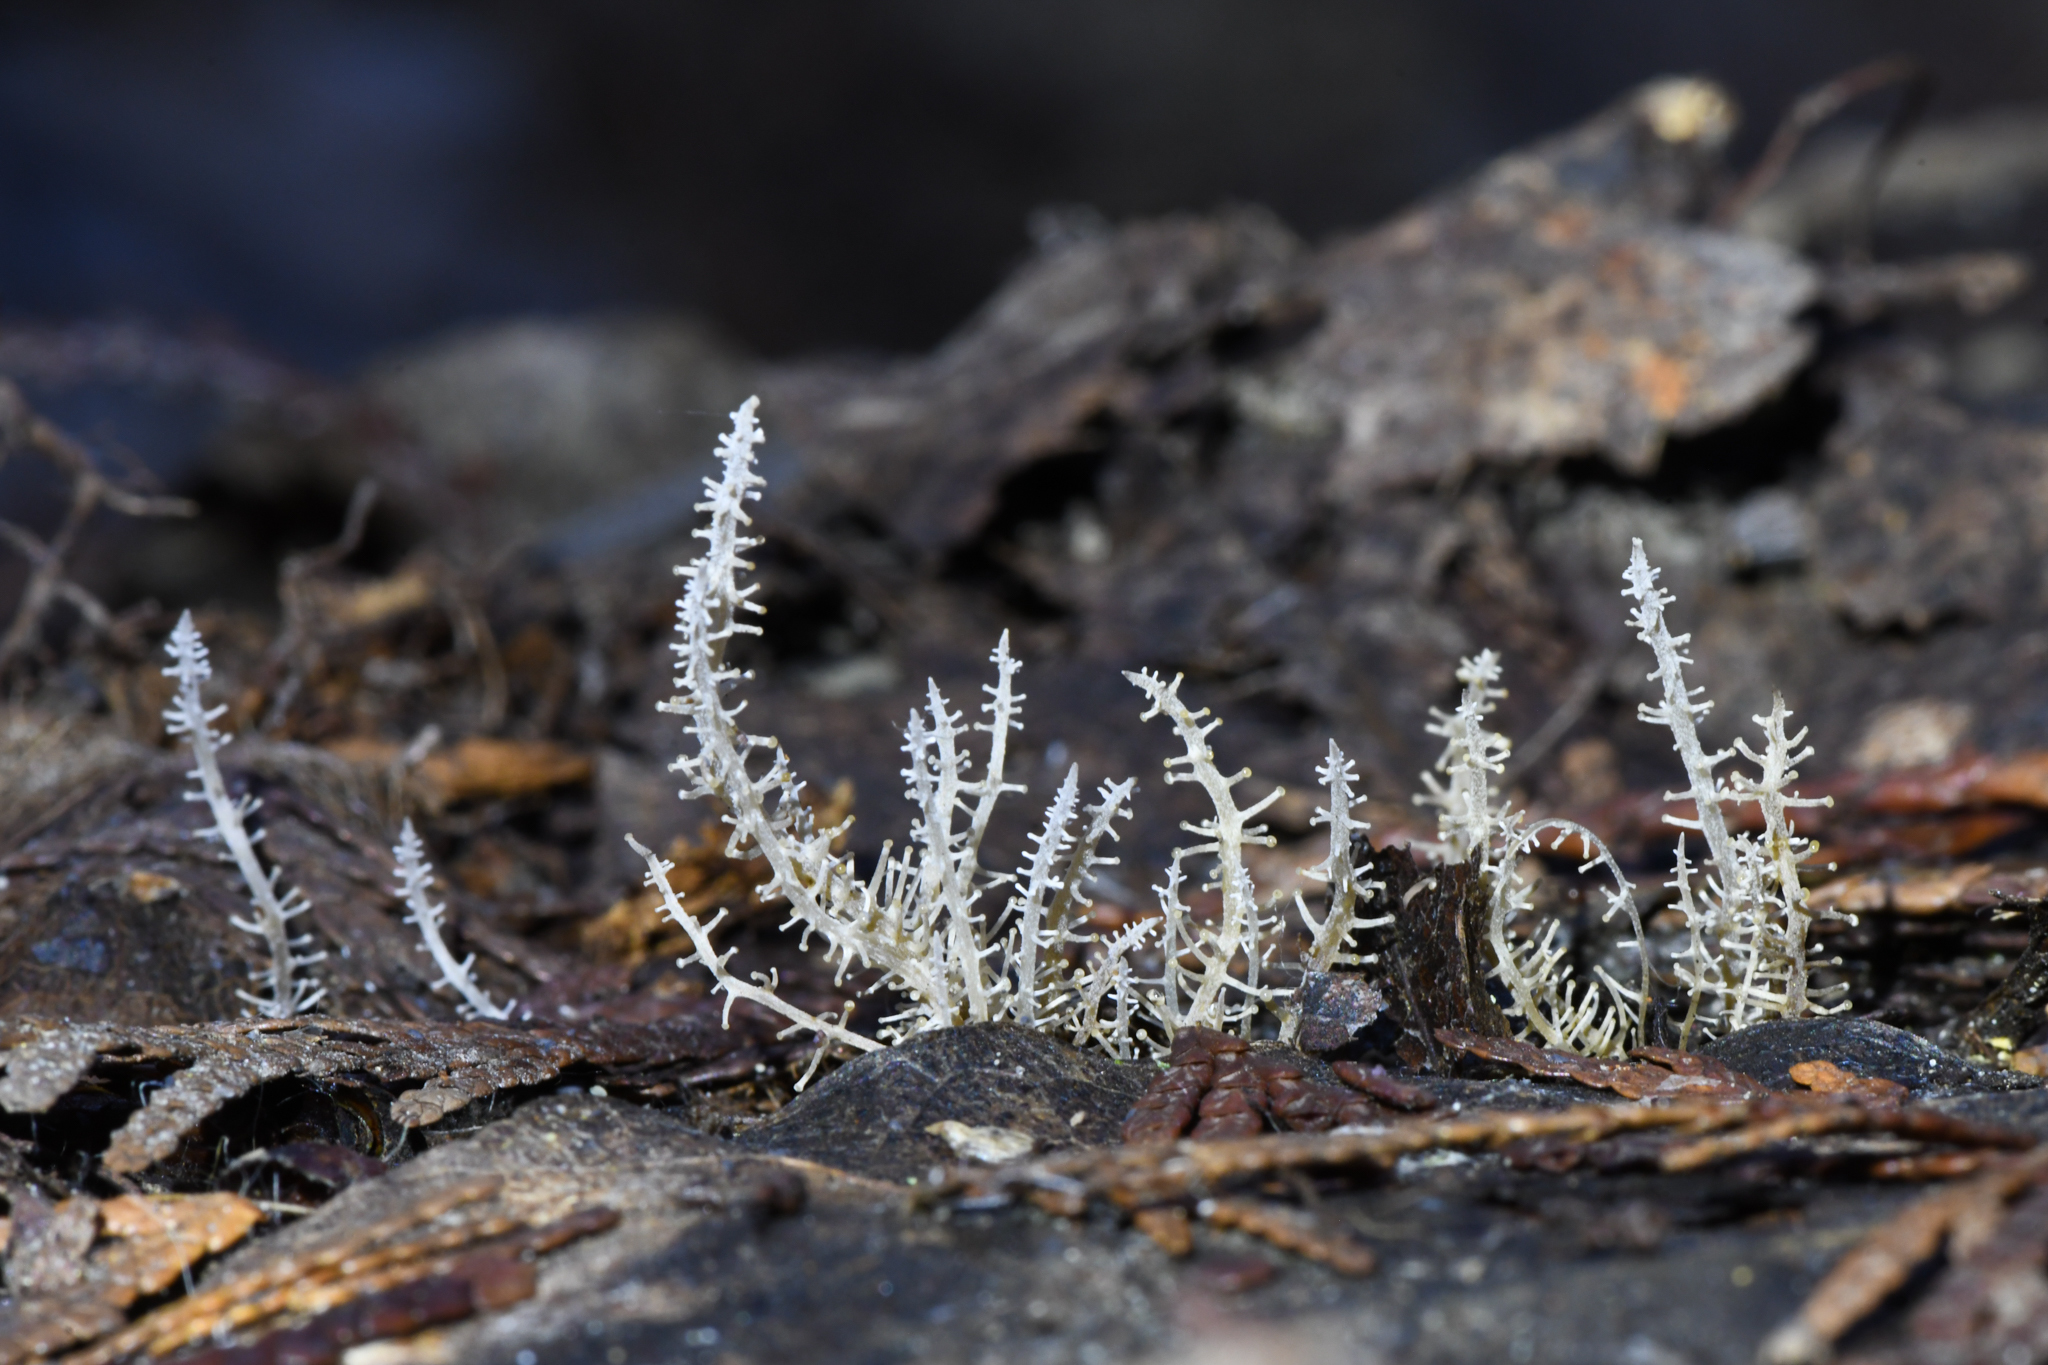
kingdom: Fungi
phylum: Basidiomycota
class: Agaricomycetes
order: Agaricales
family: Tricholomataceae
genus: Dendrocollybia
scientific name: Dendrocollybia racemosa
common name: Branched shanklet
